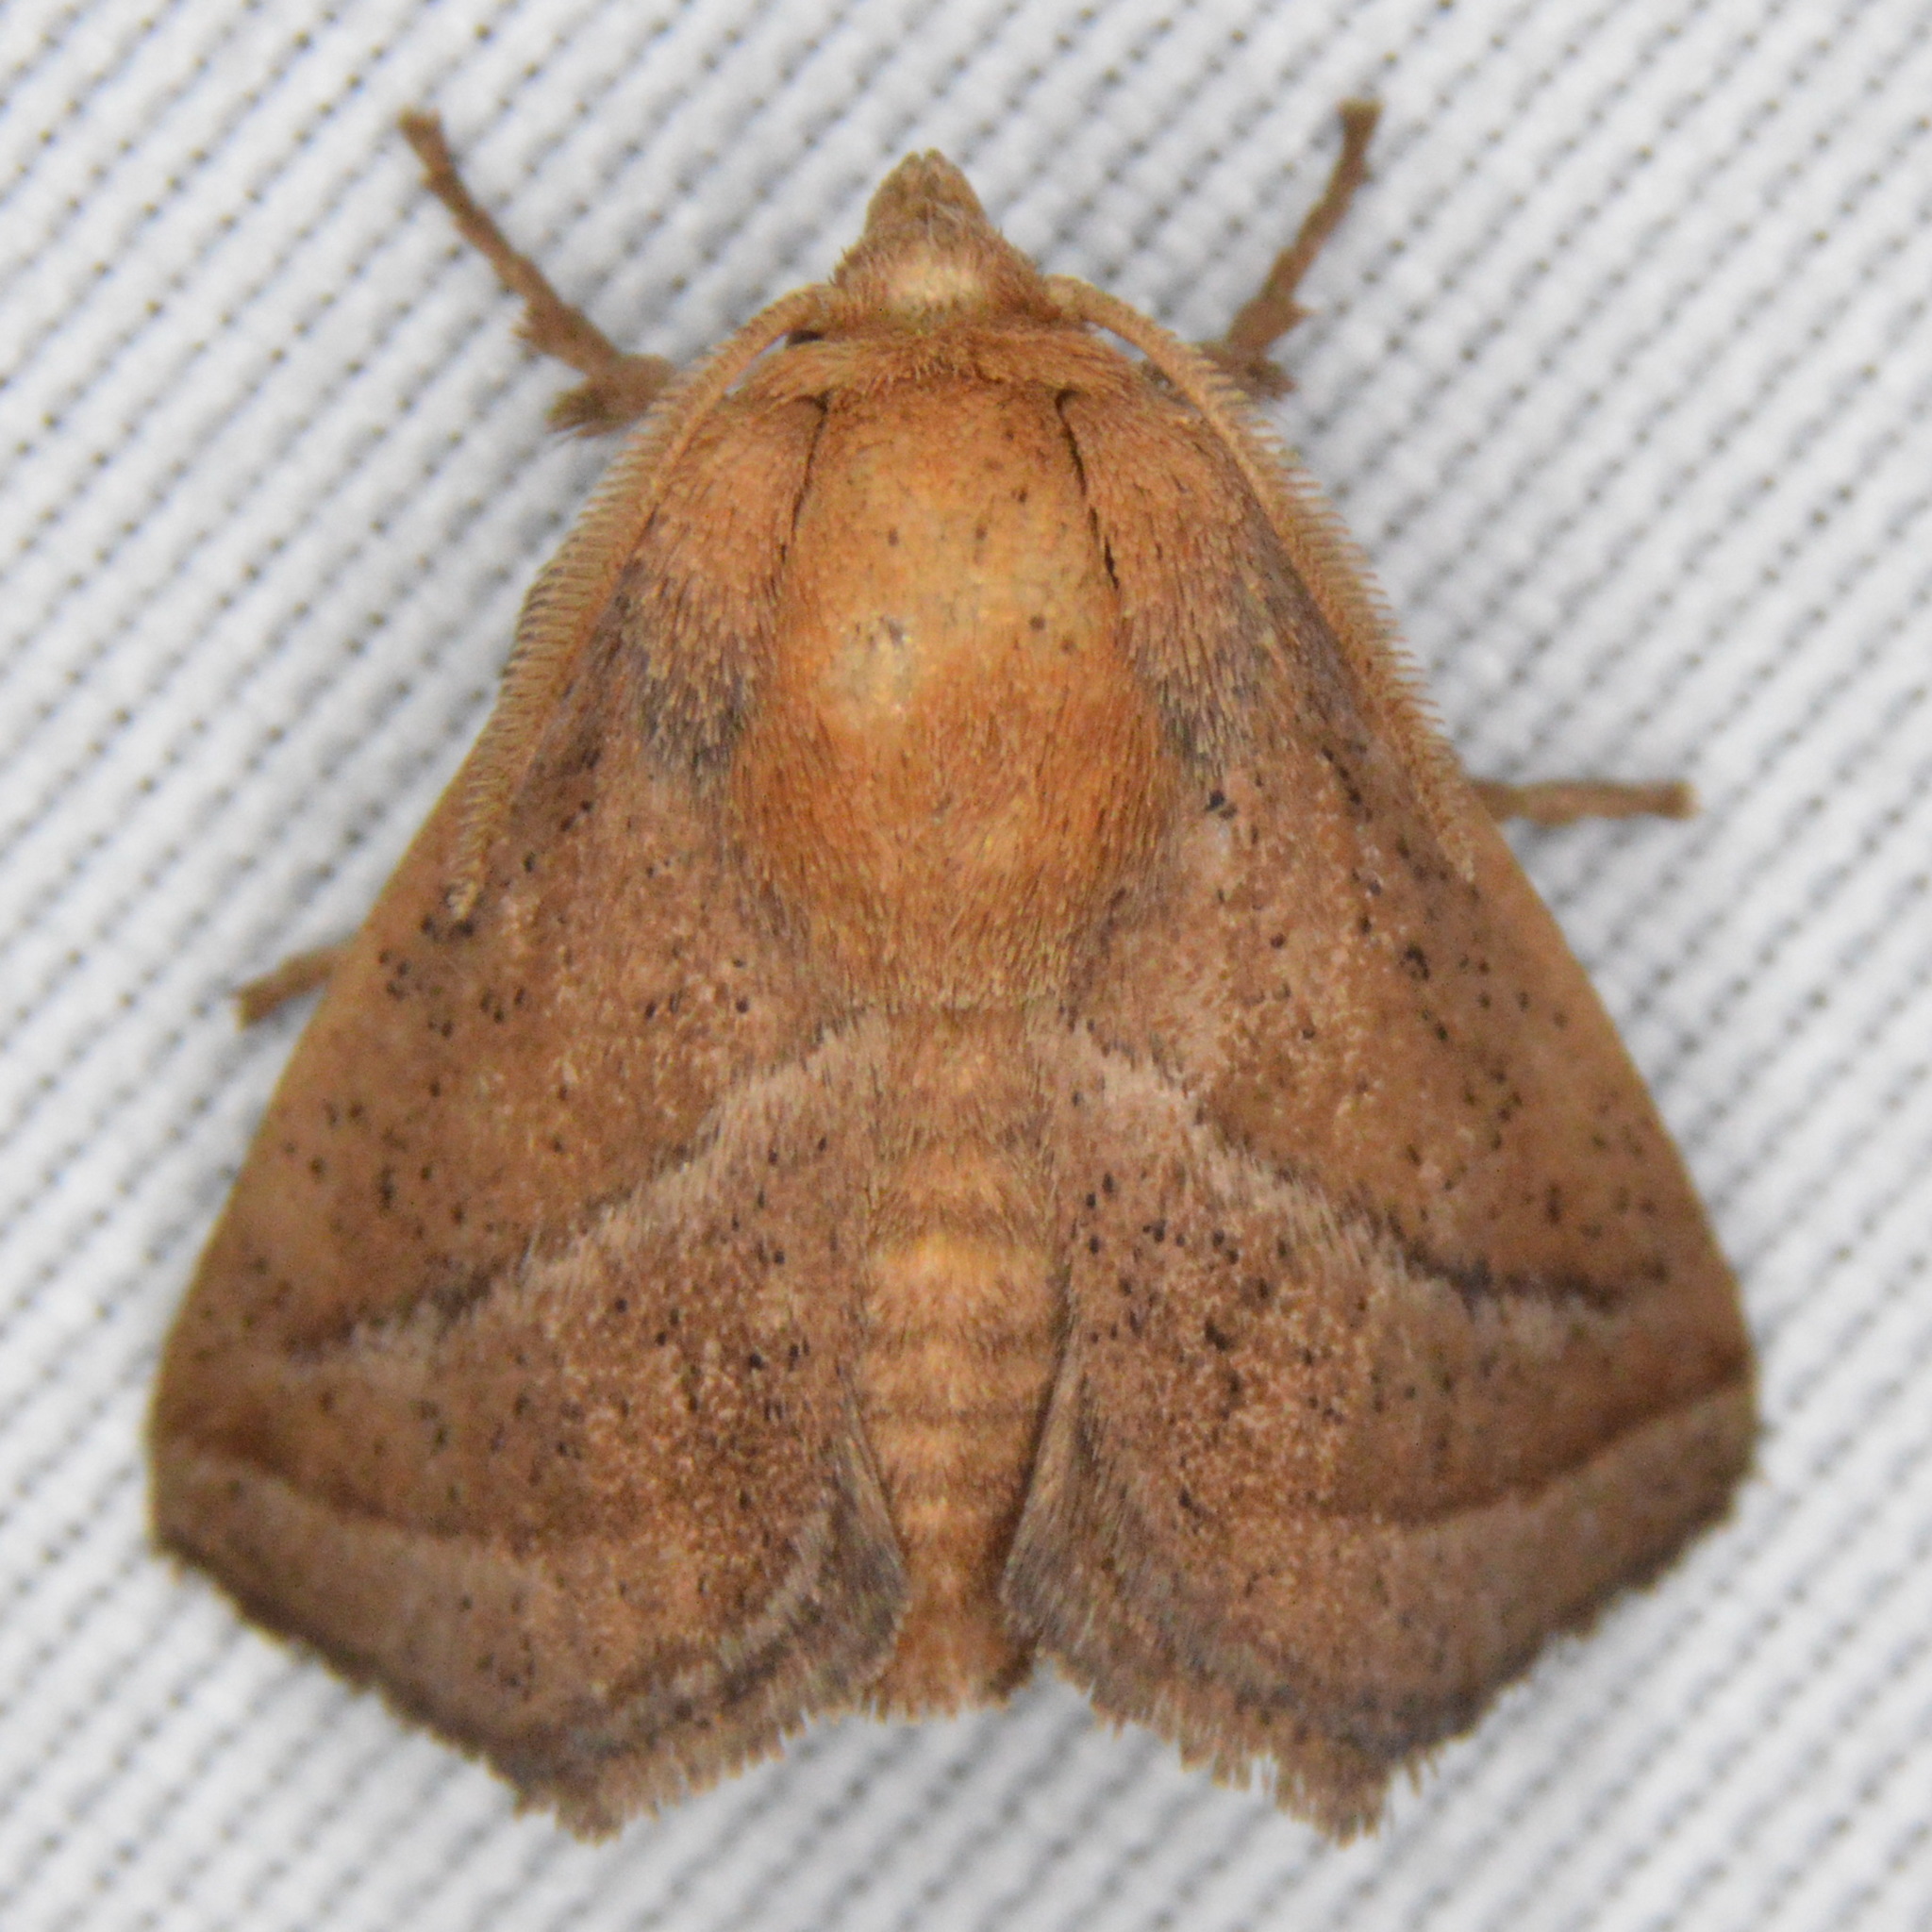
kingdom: Animalia
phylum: Arthropoda
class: Insecta
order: Lepidoptera
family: Limacodidae
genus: Natada
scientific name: Natada nasoni
